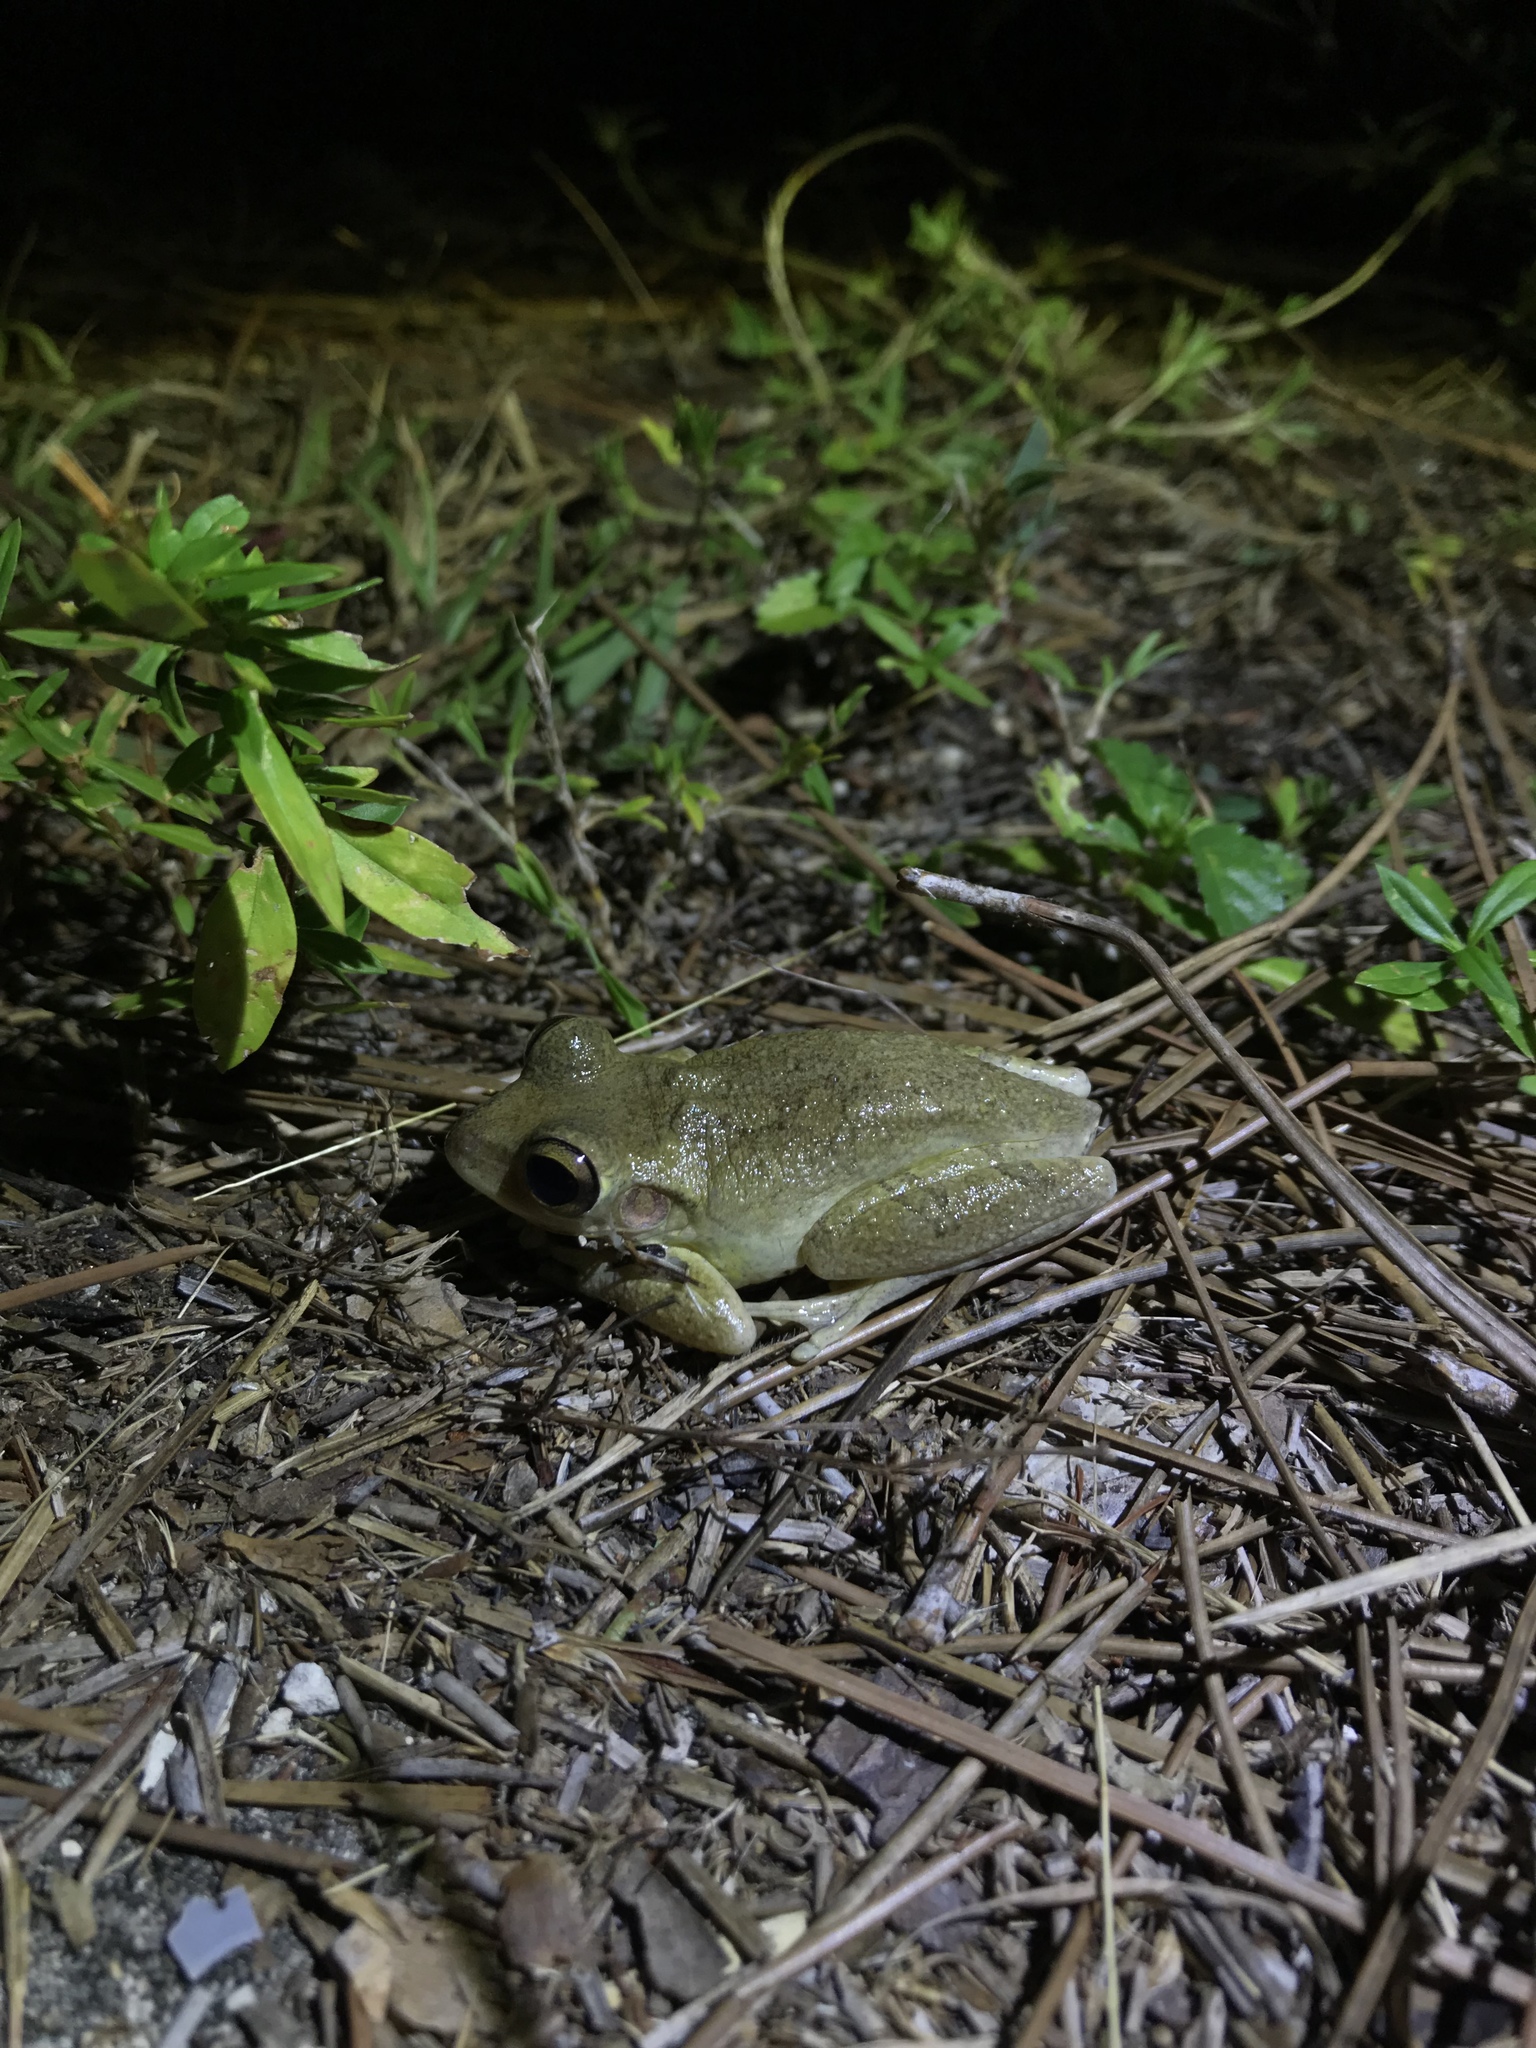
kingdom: Animalia
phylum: Chordata
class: Amphibia
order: Anura
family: Hylidae
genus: Osteopilus
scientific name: Osteopilus septentrionalis
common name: Cuban treefrog
